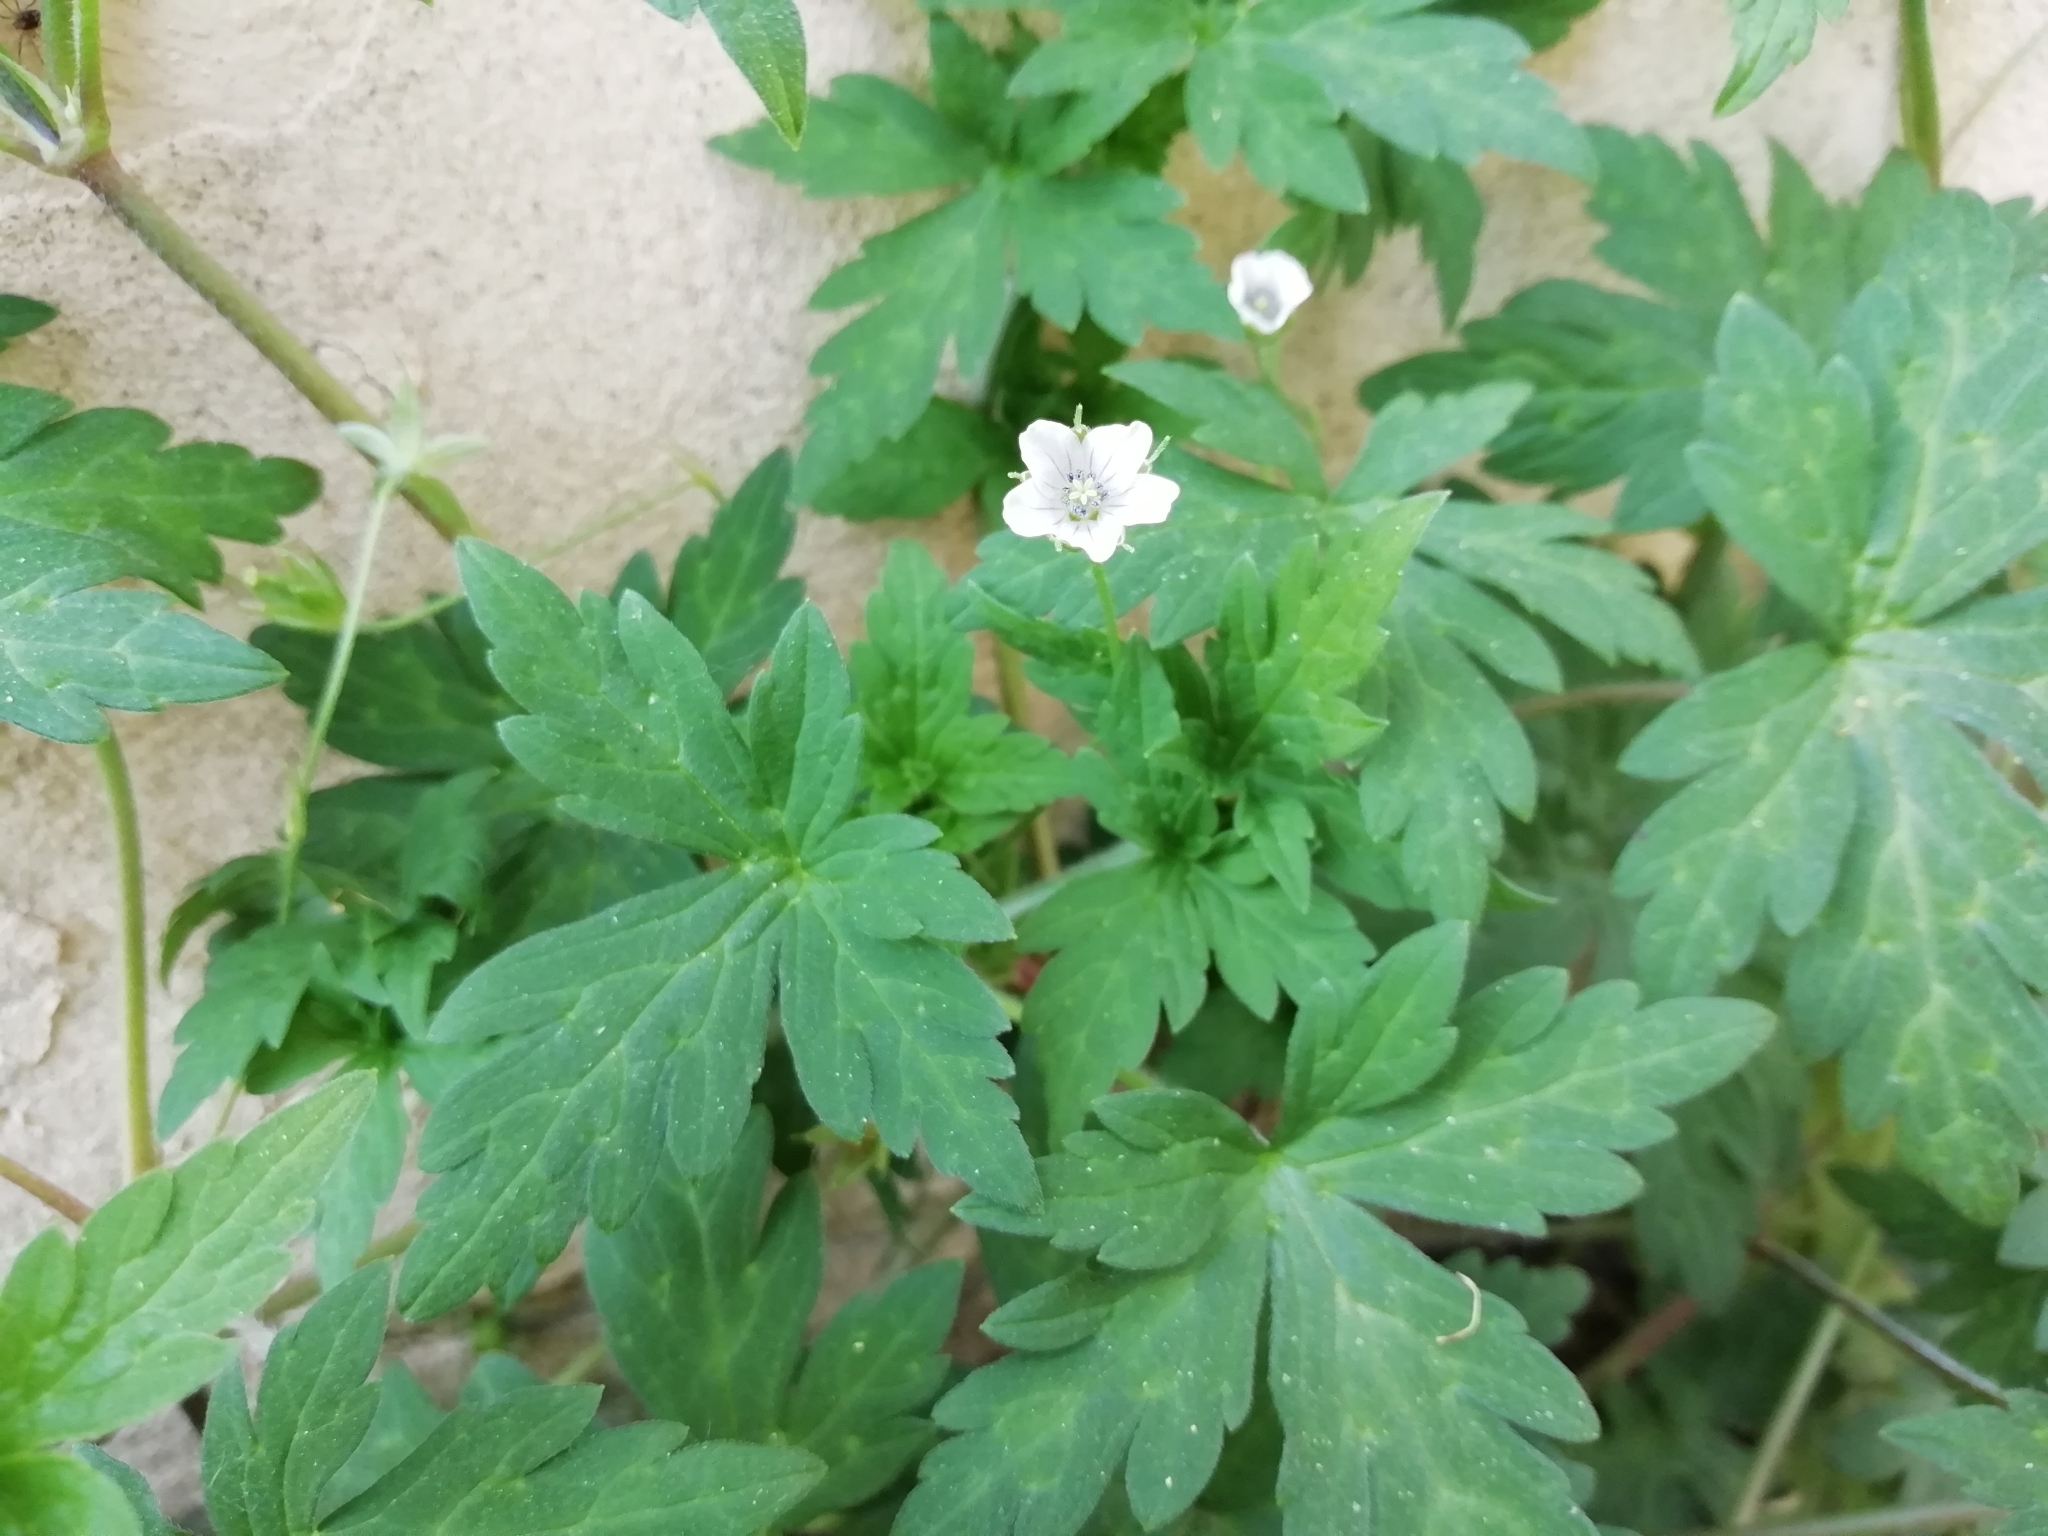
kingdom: Plantae
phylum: Tracheophyta
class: Magnoliopsida
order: Geraniales
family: Geraniaceae
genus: Geranium
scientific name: Geranium sibiricum
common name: Siberian crane's-bill
